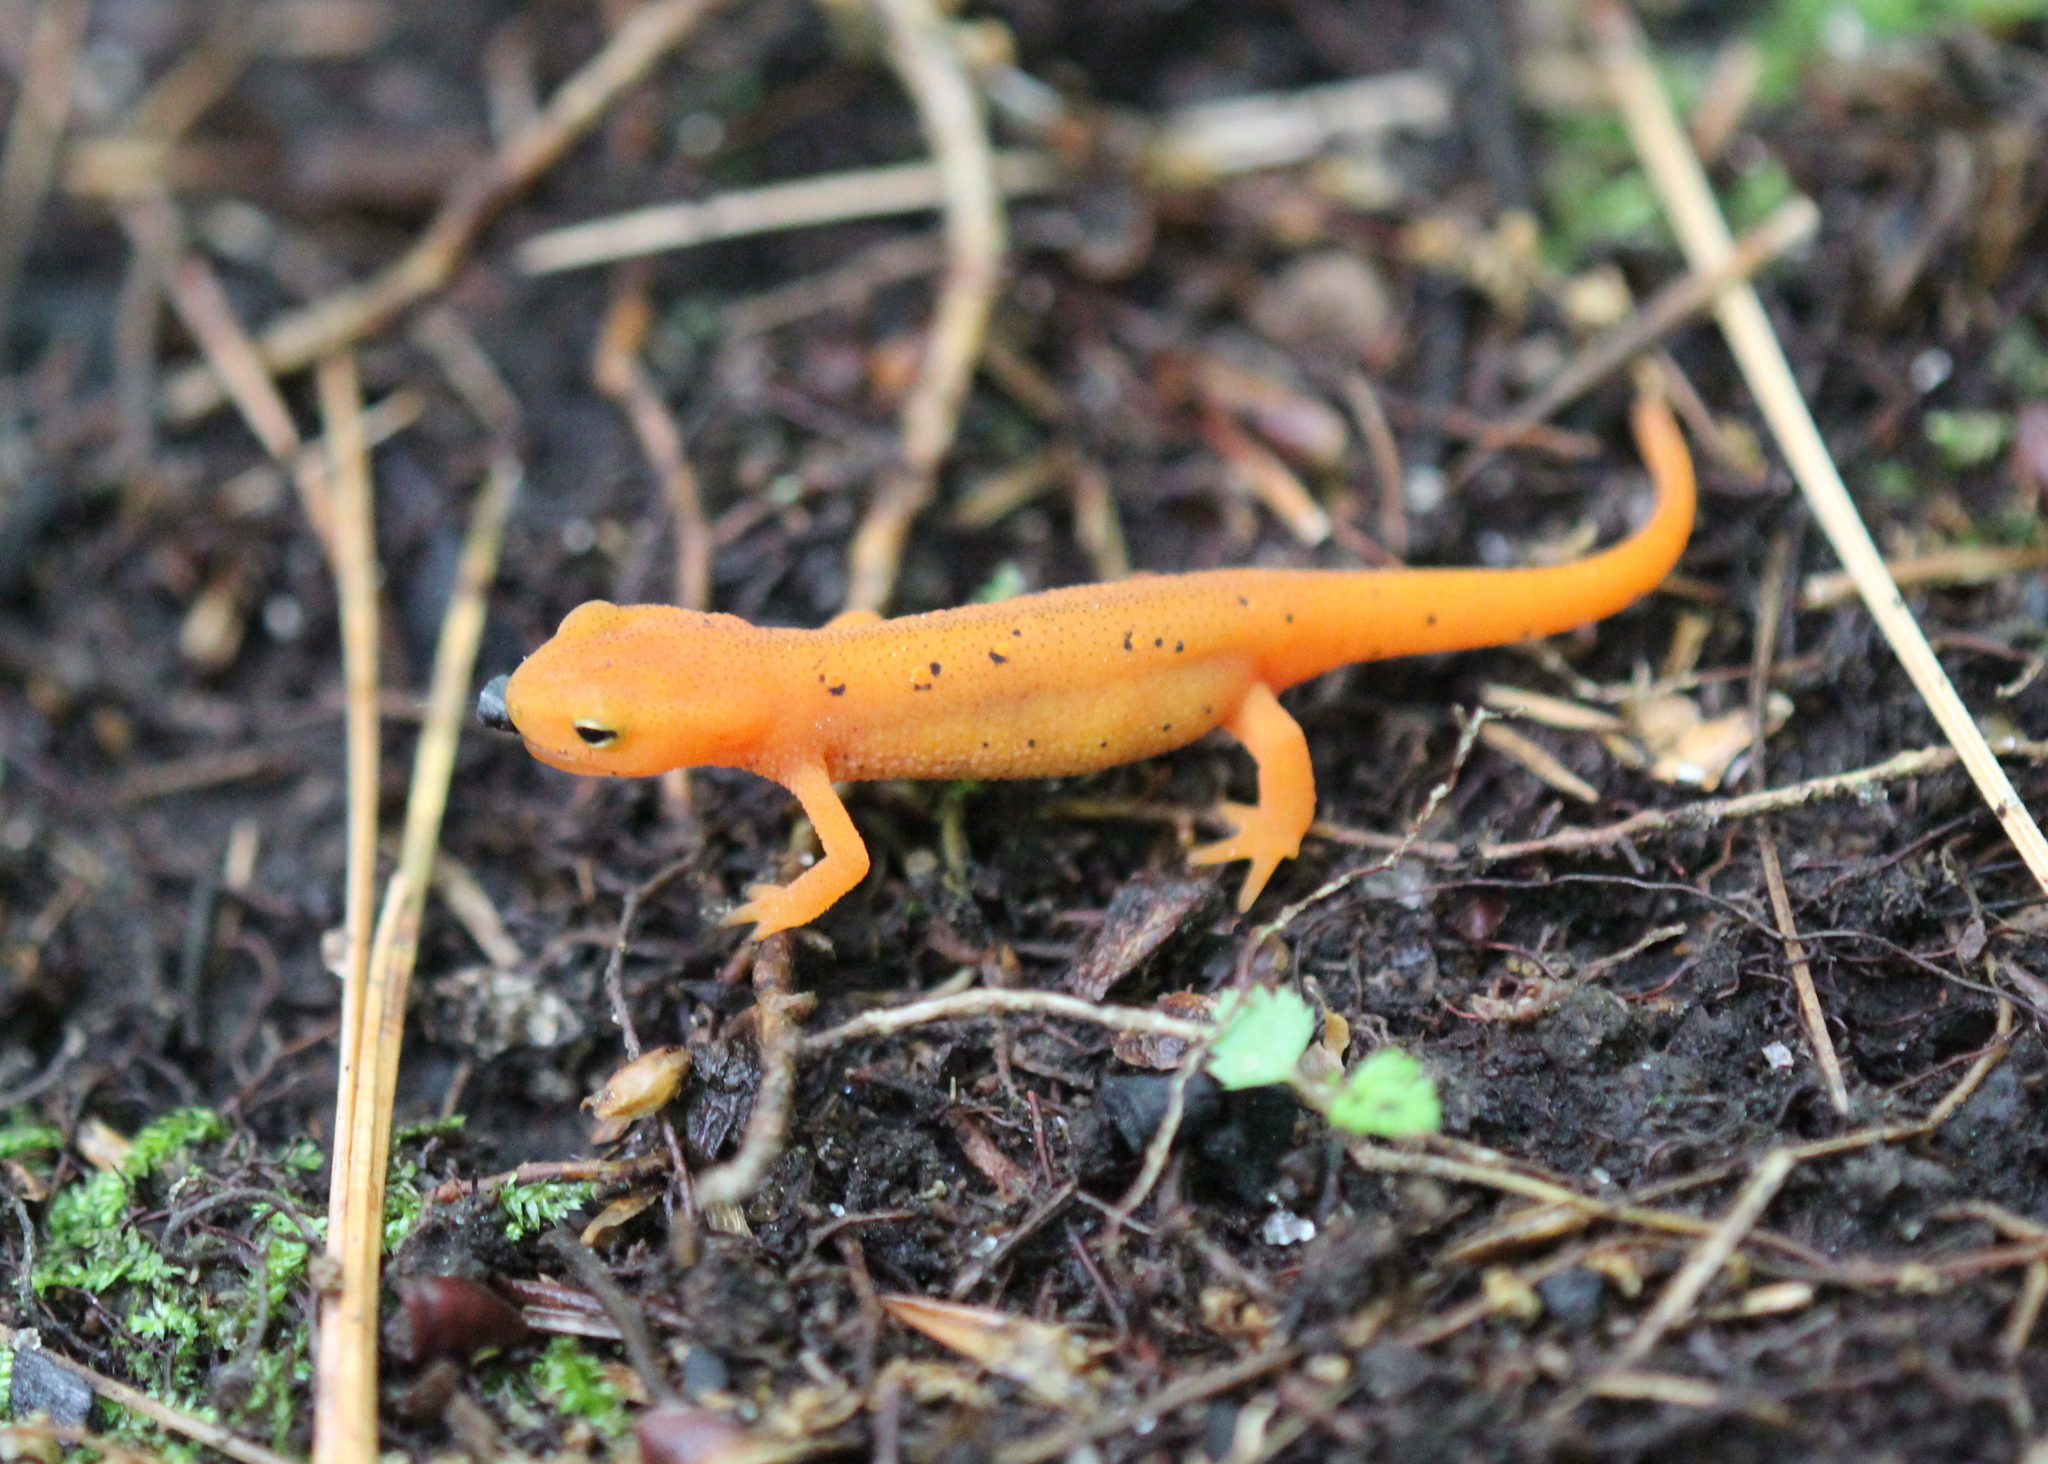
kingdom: Animalia
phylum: Chordata
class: Amphibia
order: Caudata
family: Salamandridae
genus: Notophthalmus
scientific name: Notophthalmus viridescens
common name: Eastern newt
